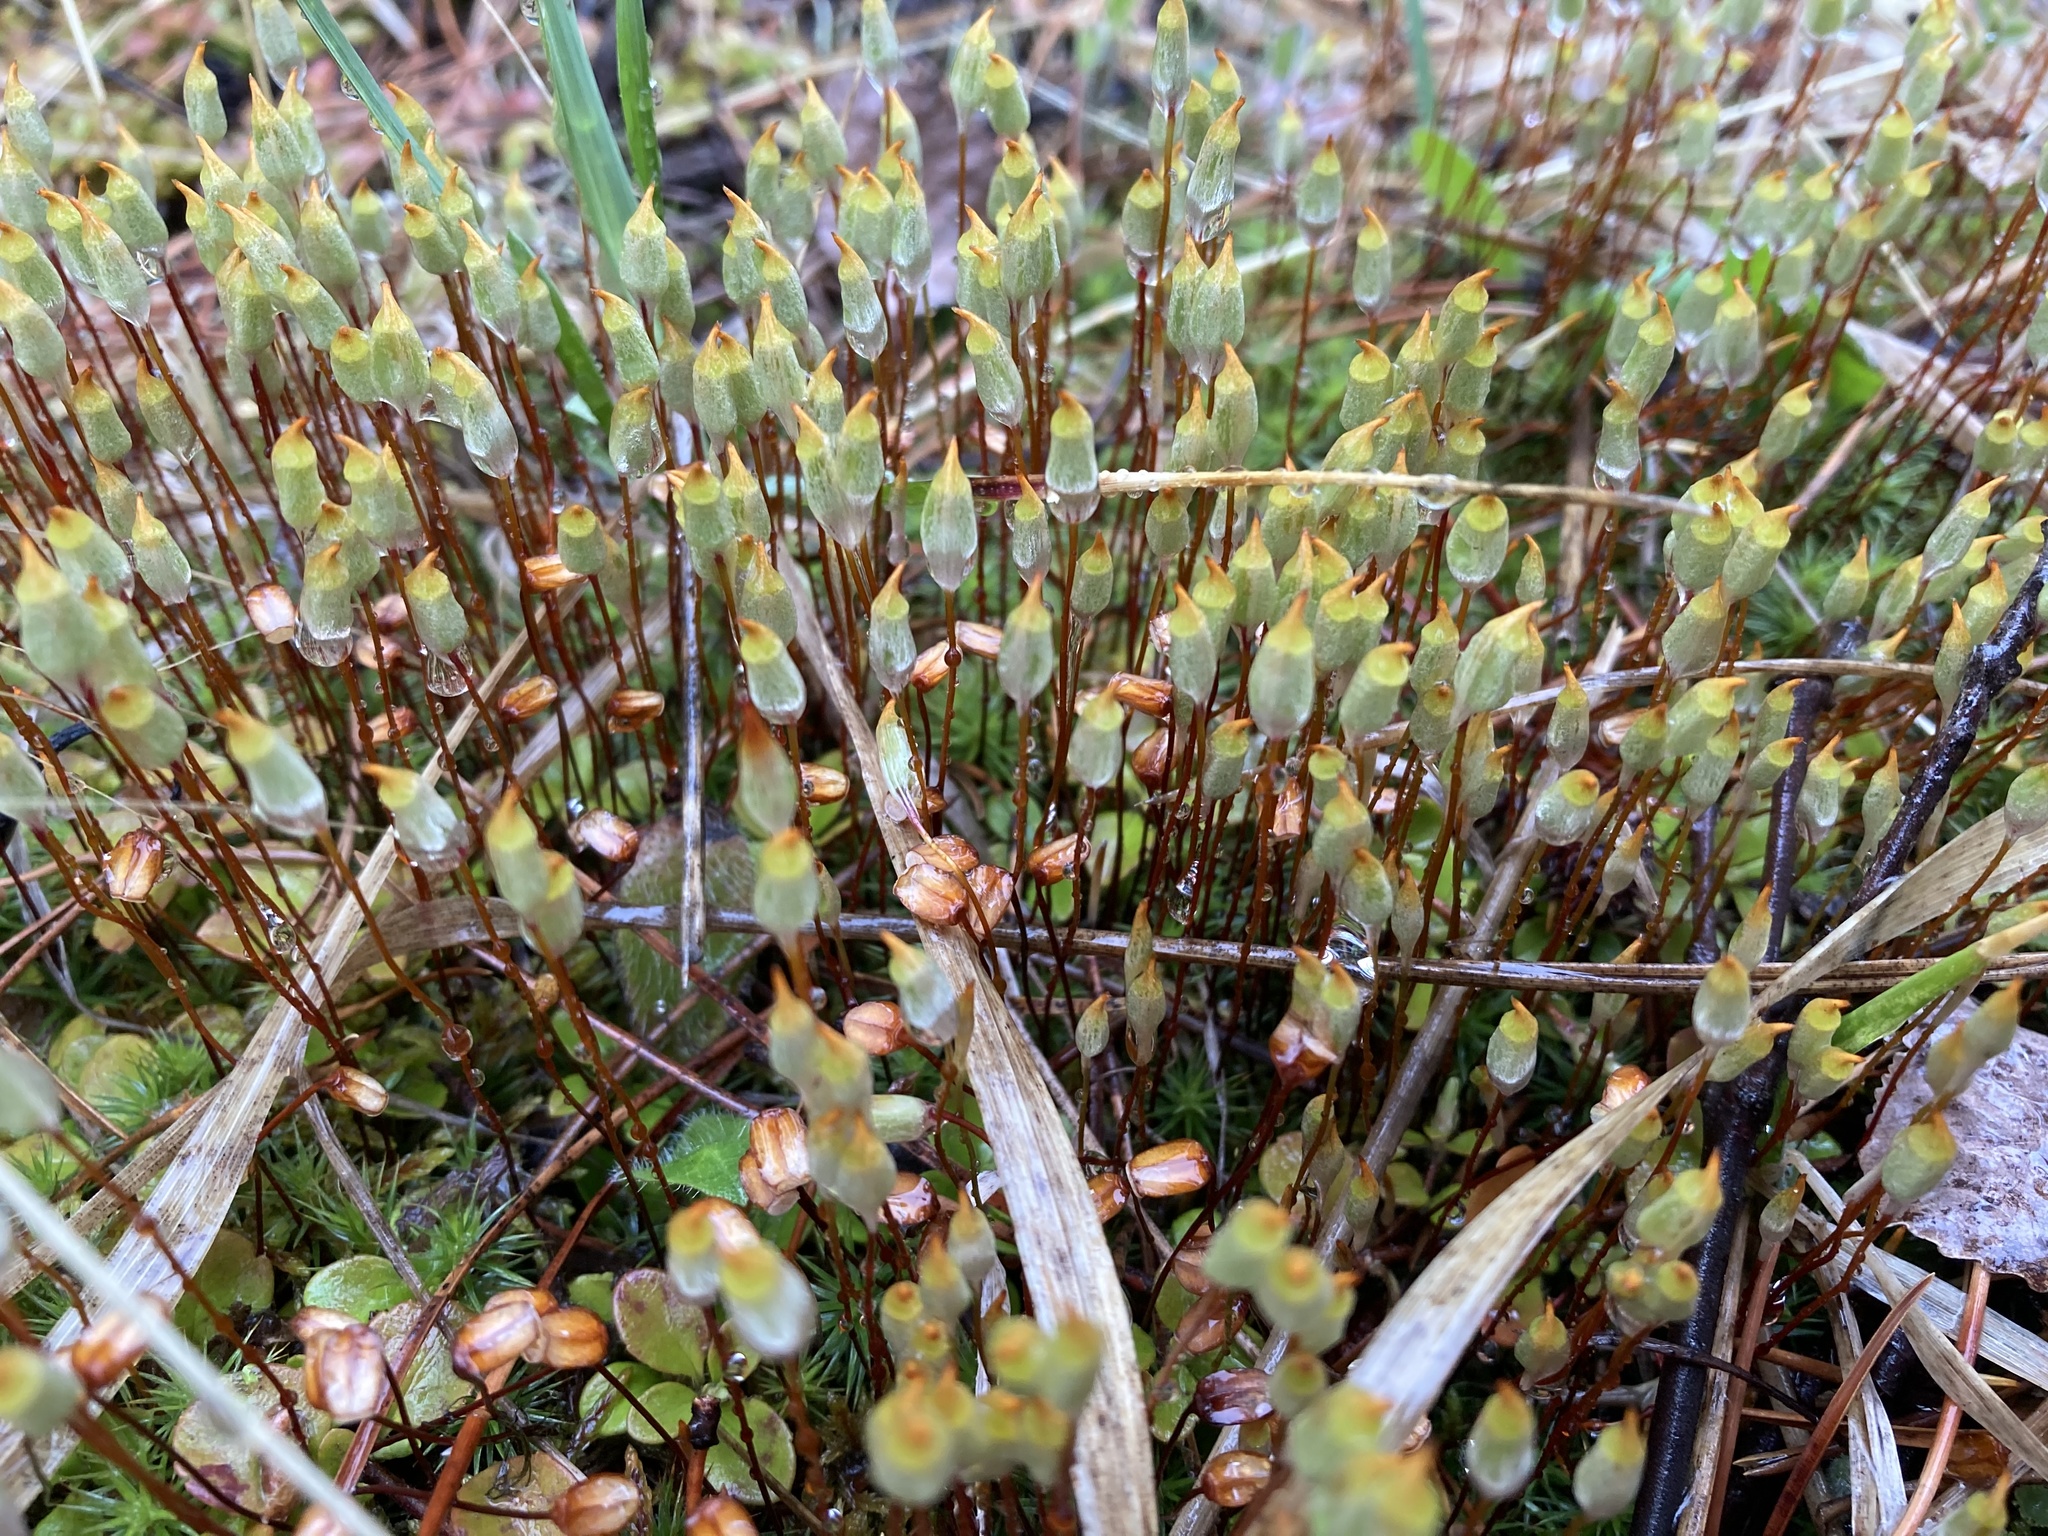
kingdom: Plantae
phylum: Bryophyta
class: Polytrichopsida
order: Polytrichales
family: Polytrichaceae
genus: Polytrichum
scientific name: Polytrichum juniperinum
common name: Juniper haircap moss
